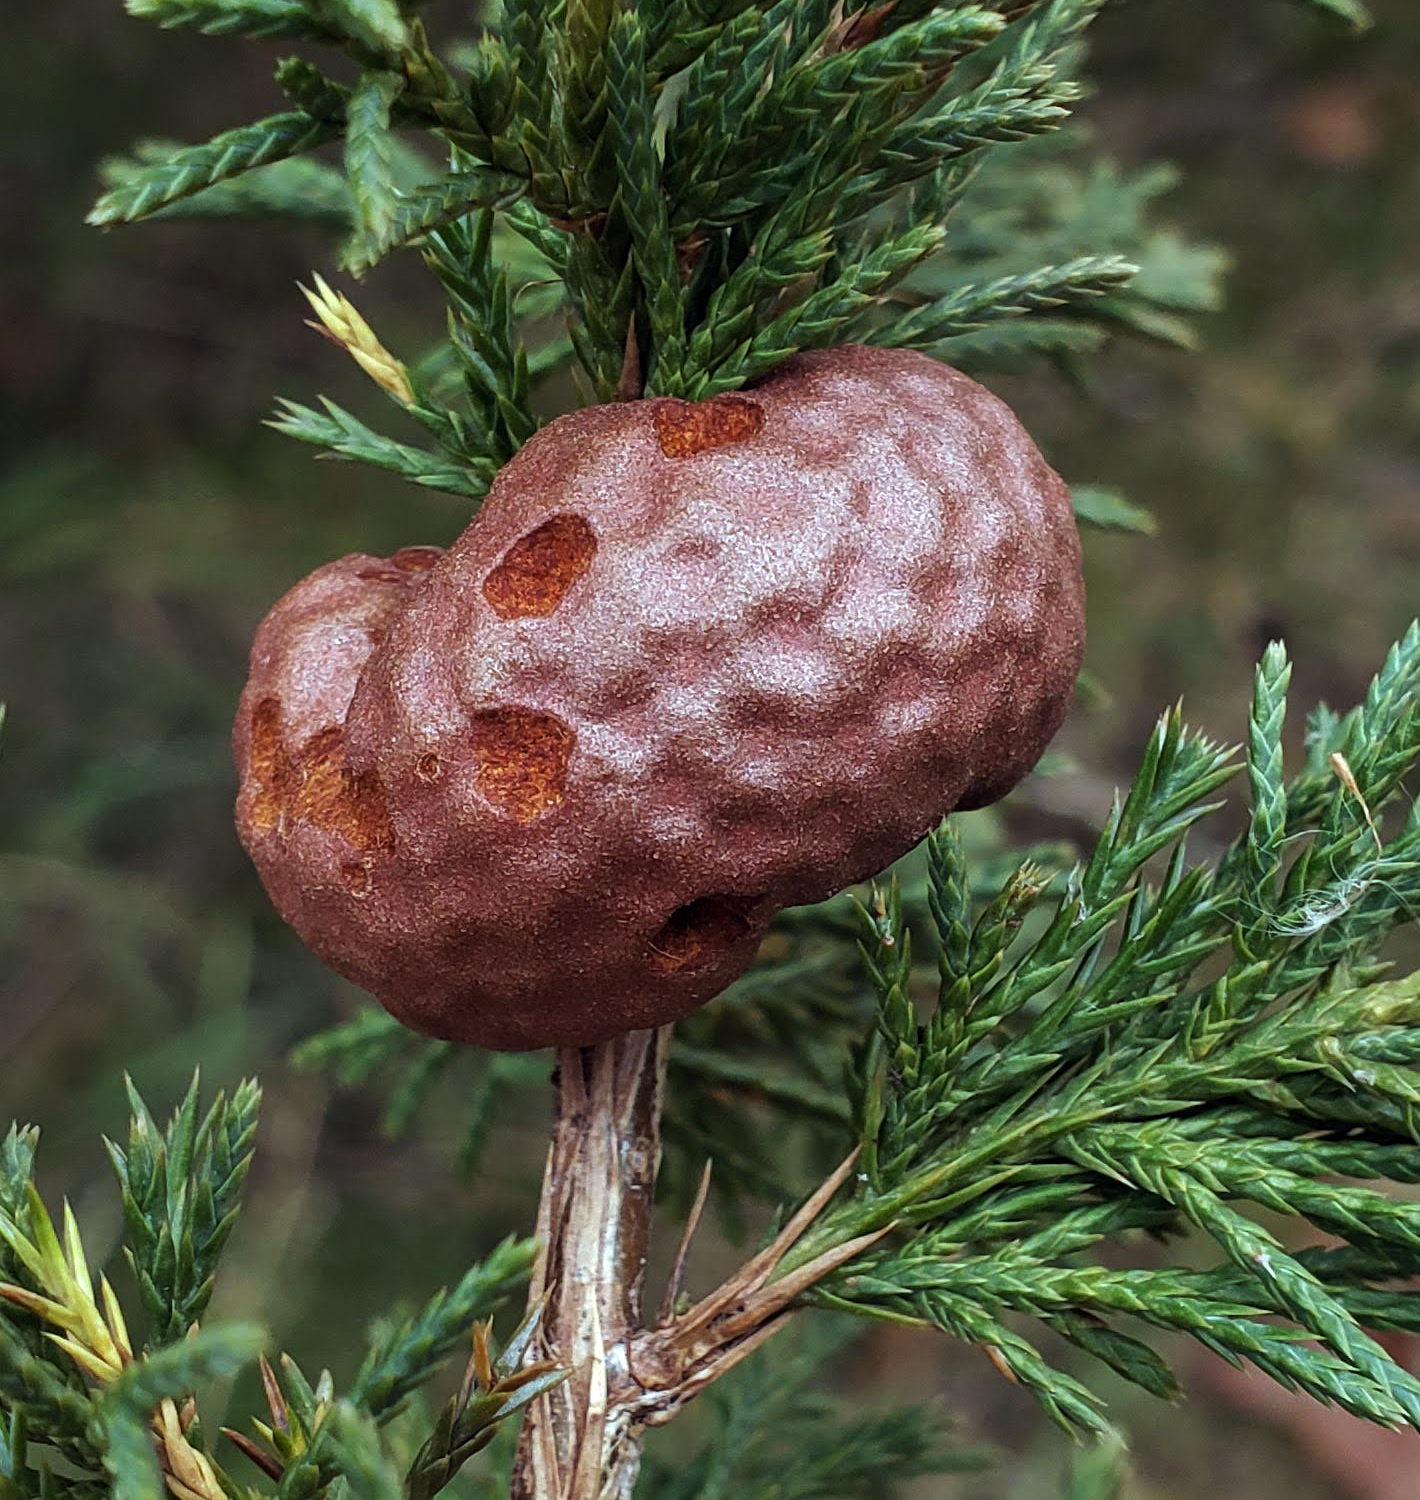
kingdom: Fungi
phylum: Basidiomycota
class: Pucciniomycetes
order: Pucciniales
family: Gymnosporangiaceae
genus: Gymnosporangium
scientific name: Gymnosporangium juniperi-virginianae
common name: Juniper-apple rust
